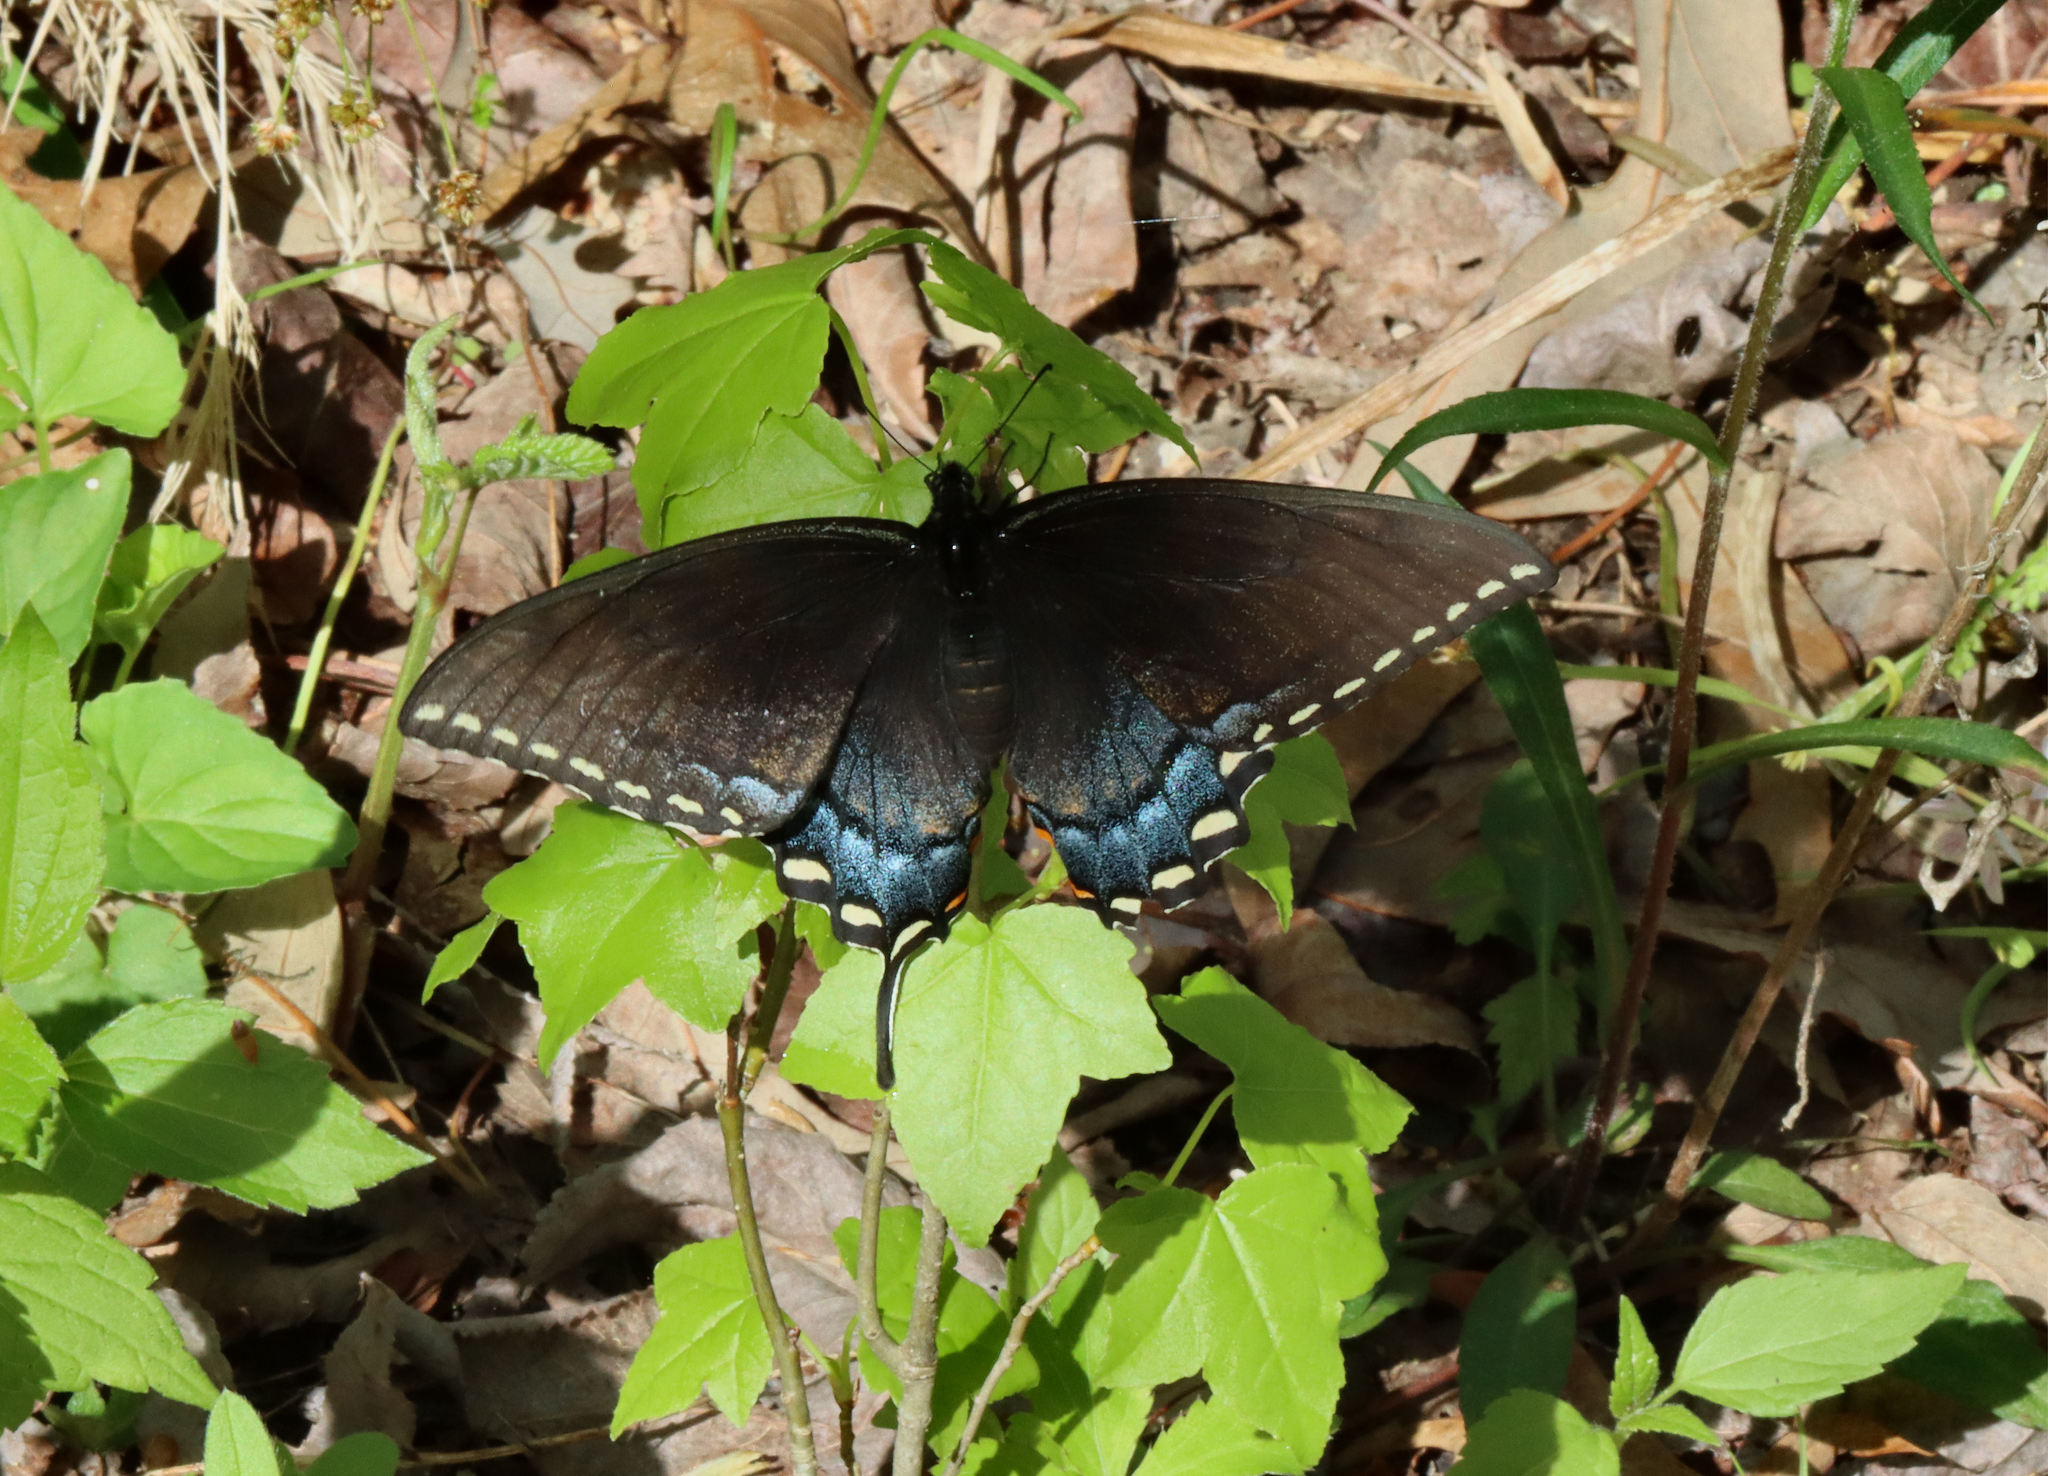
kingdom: Animalia
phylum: Arthropoda
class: Insecta
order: Lepidoptera
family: Papilionidae
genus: Papilio
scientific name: Papilio glaucus
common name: Tiger swallowtail
